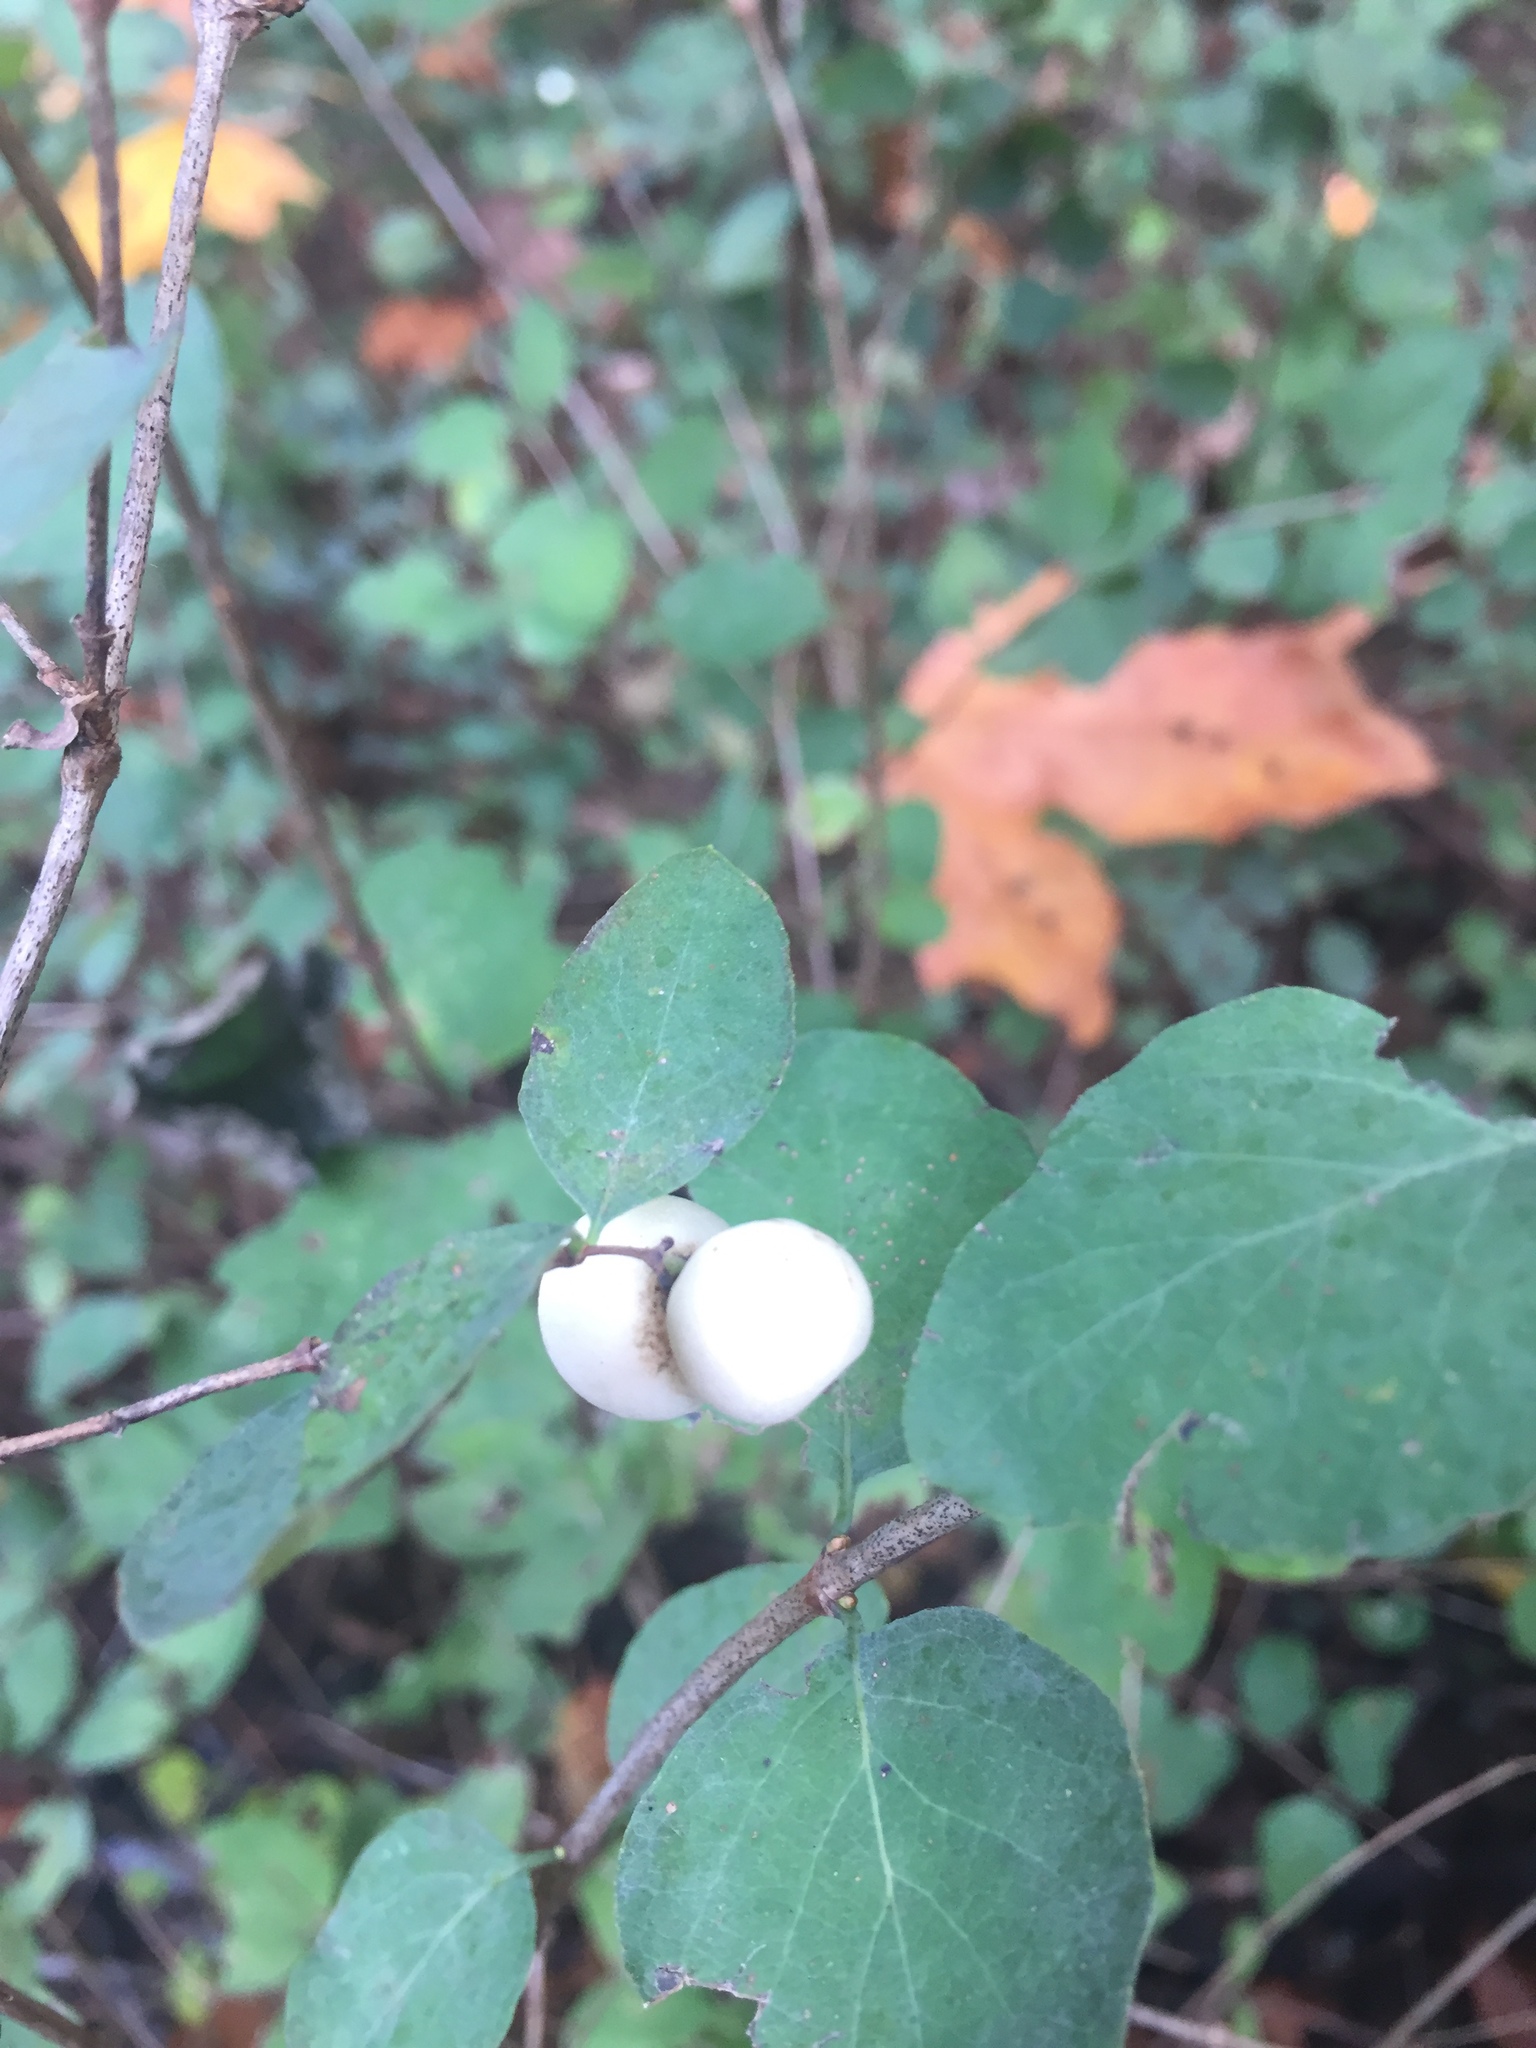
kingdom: Plantae
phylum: Tracheophyta
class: Magnoliopsida
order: Dipsacales
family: Caprifoliaceae
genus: Symphoricarpos
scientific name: Symphoricarpos albus
